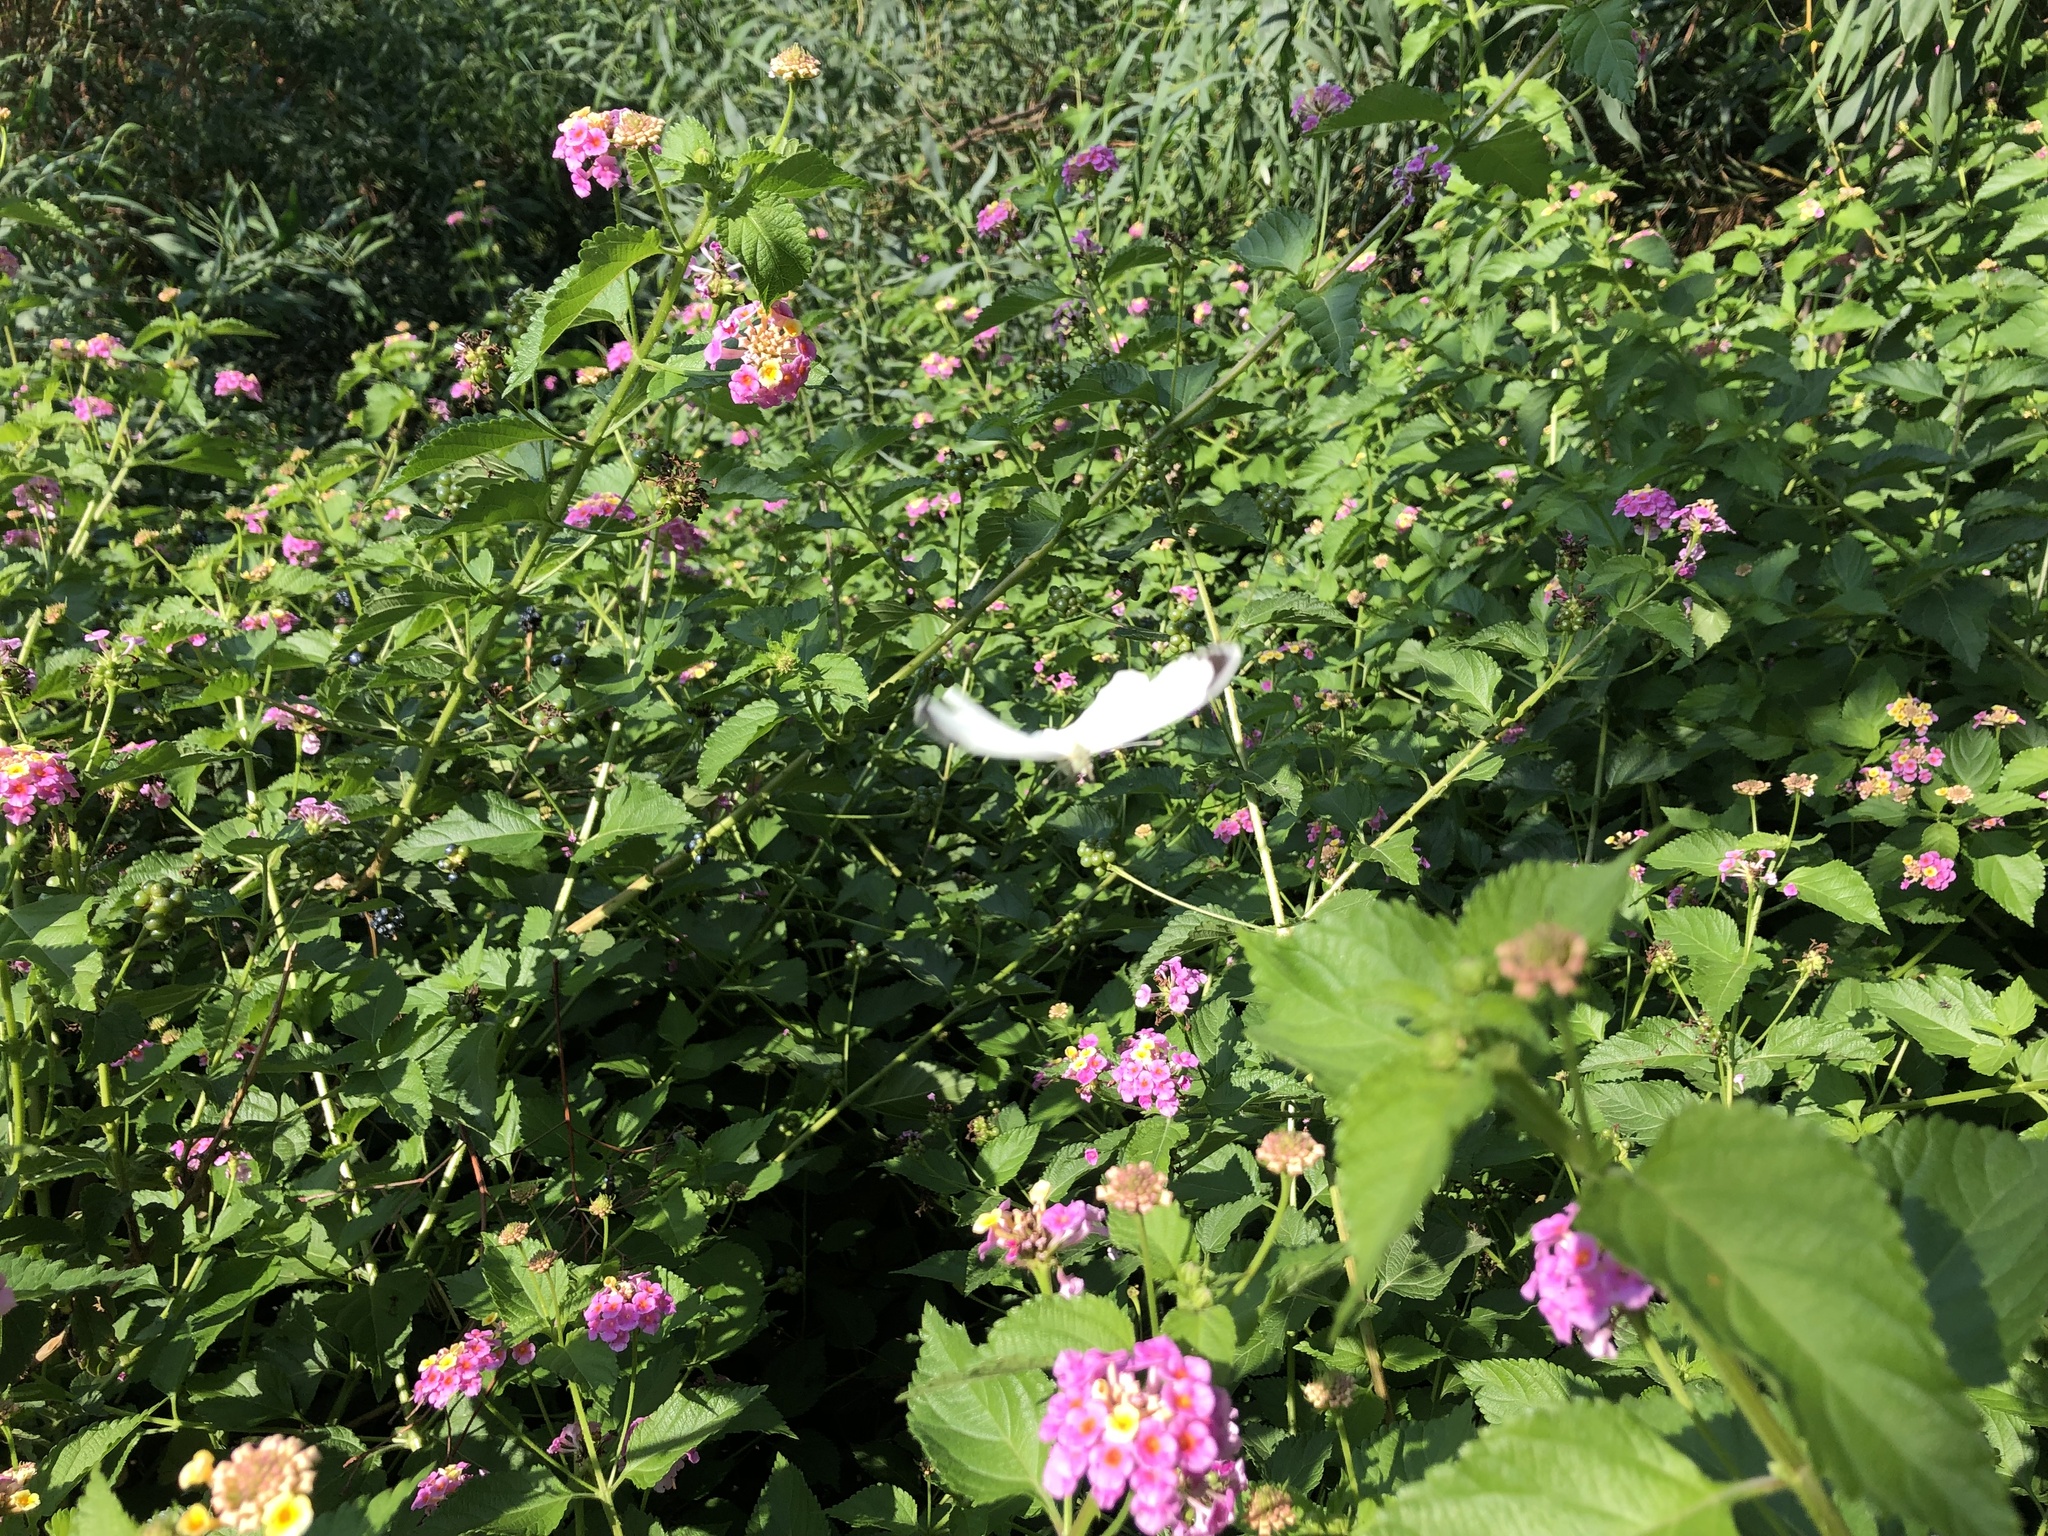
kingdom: Animalia
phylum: Arthropoda
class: Insecta
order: Lepidoptera
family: Pieridae
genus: Pieris
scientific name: Pieris brassicae
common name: Large white
